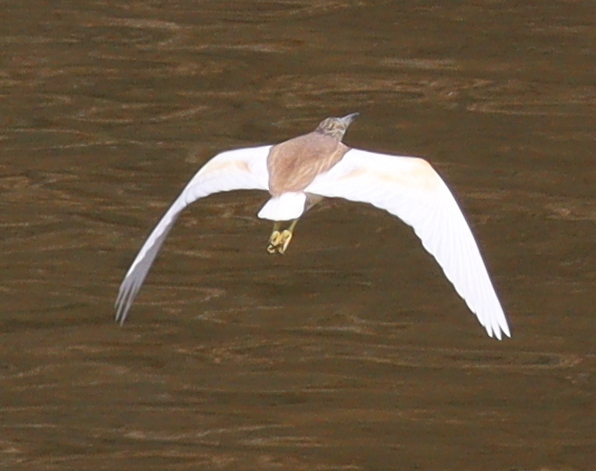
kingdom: Animalia
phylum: Chordata
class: Aves
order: Pelecaniformes
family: Ardeidae
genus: Ardeola
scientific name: Ardeola ralloides
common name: Squacco heron
